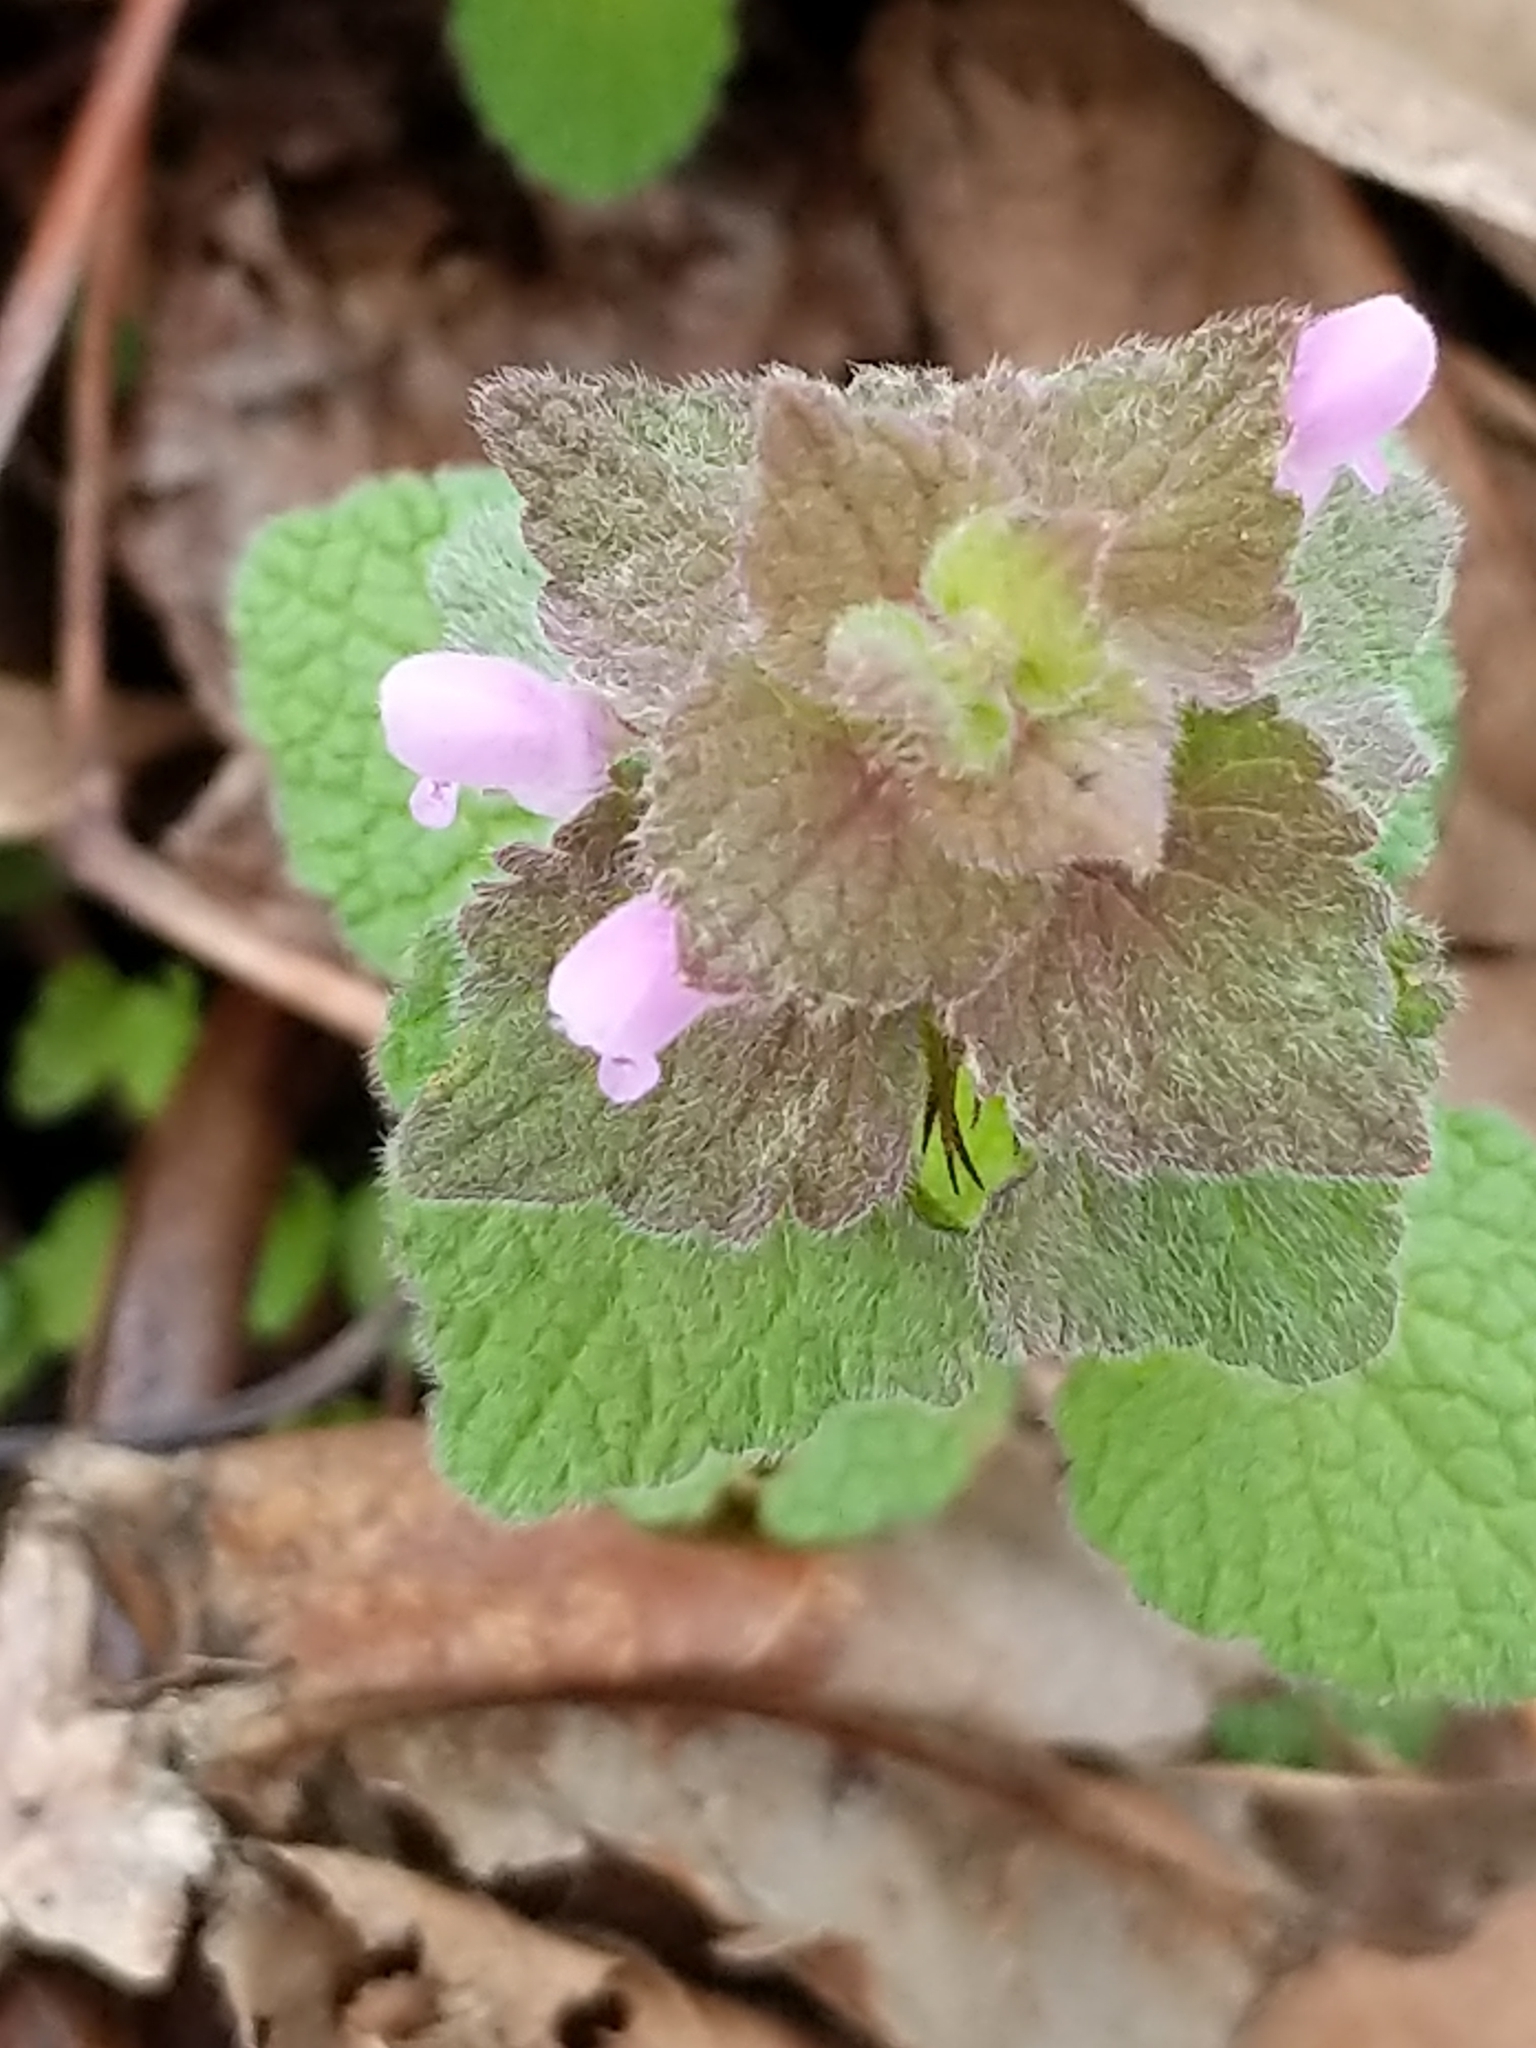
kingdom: Plantae
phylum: Tracheophyta
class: Magnoliopsida
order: Lamiales
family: Lamiaceae
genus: Lamium
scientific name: Lamium purpureum
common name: Red dead-nettle
